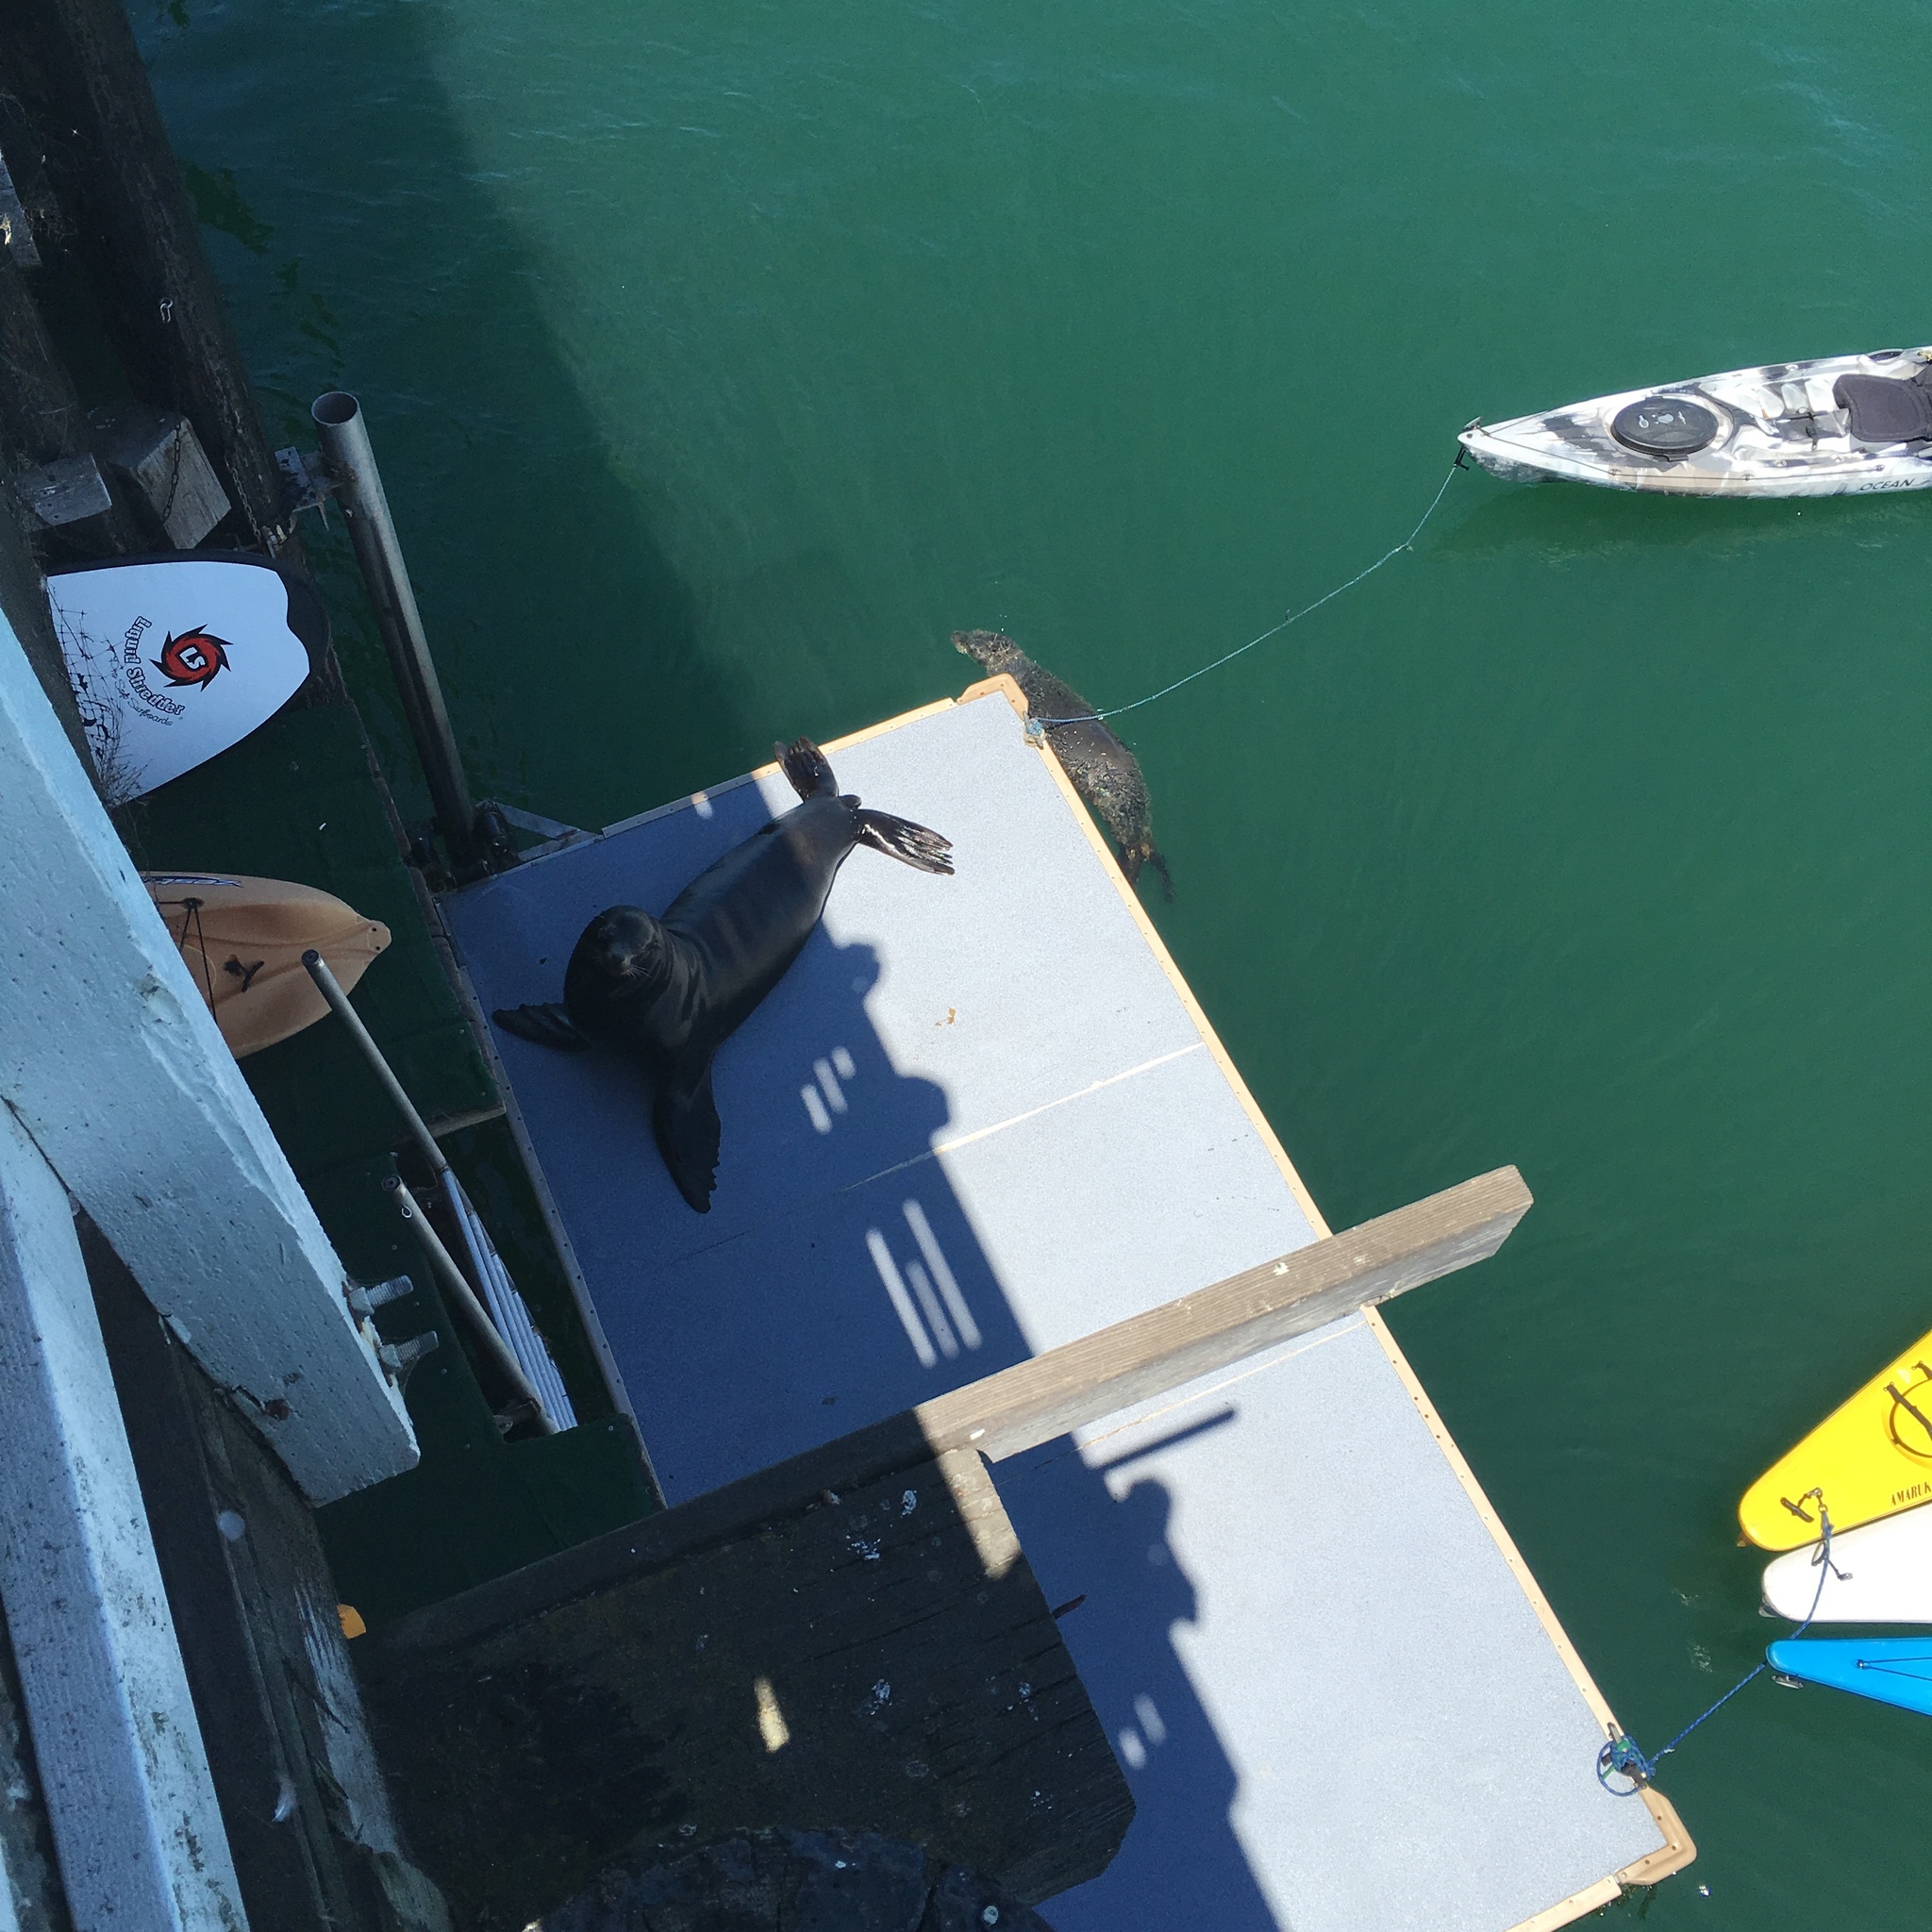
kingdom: Animalia
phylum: Chordata
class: Mammalia
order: Carnivora
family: Otariidae
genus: Zalophus
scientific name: Zalophus californianus
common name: California sea lion
